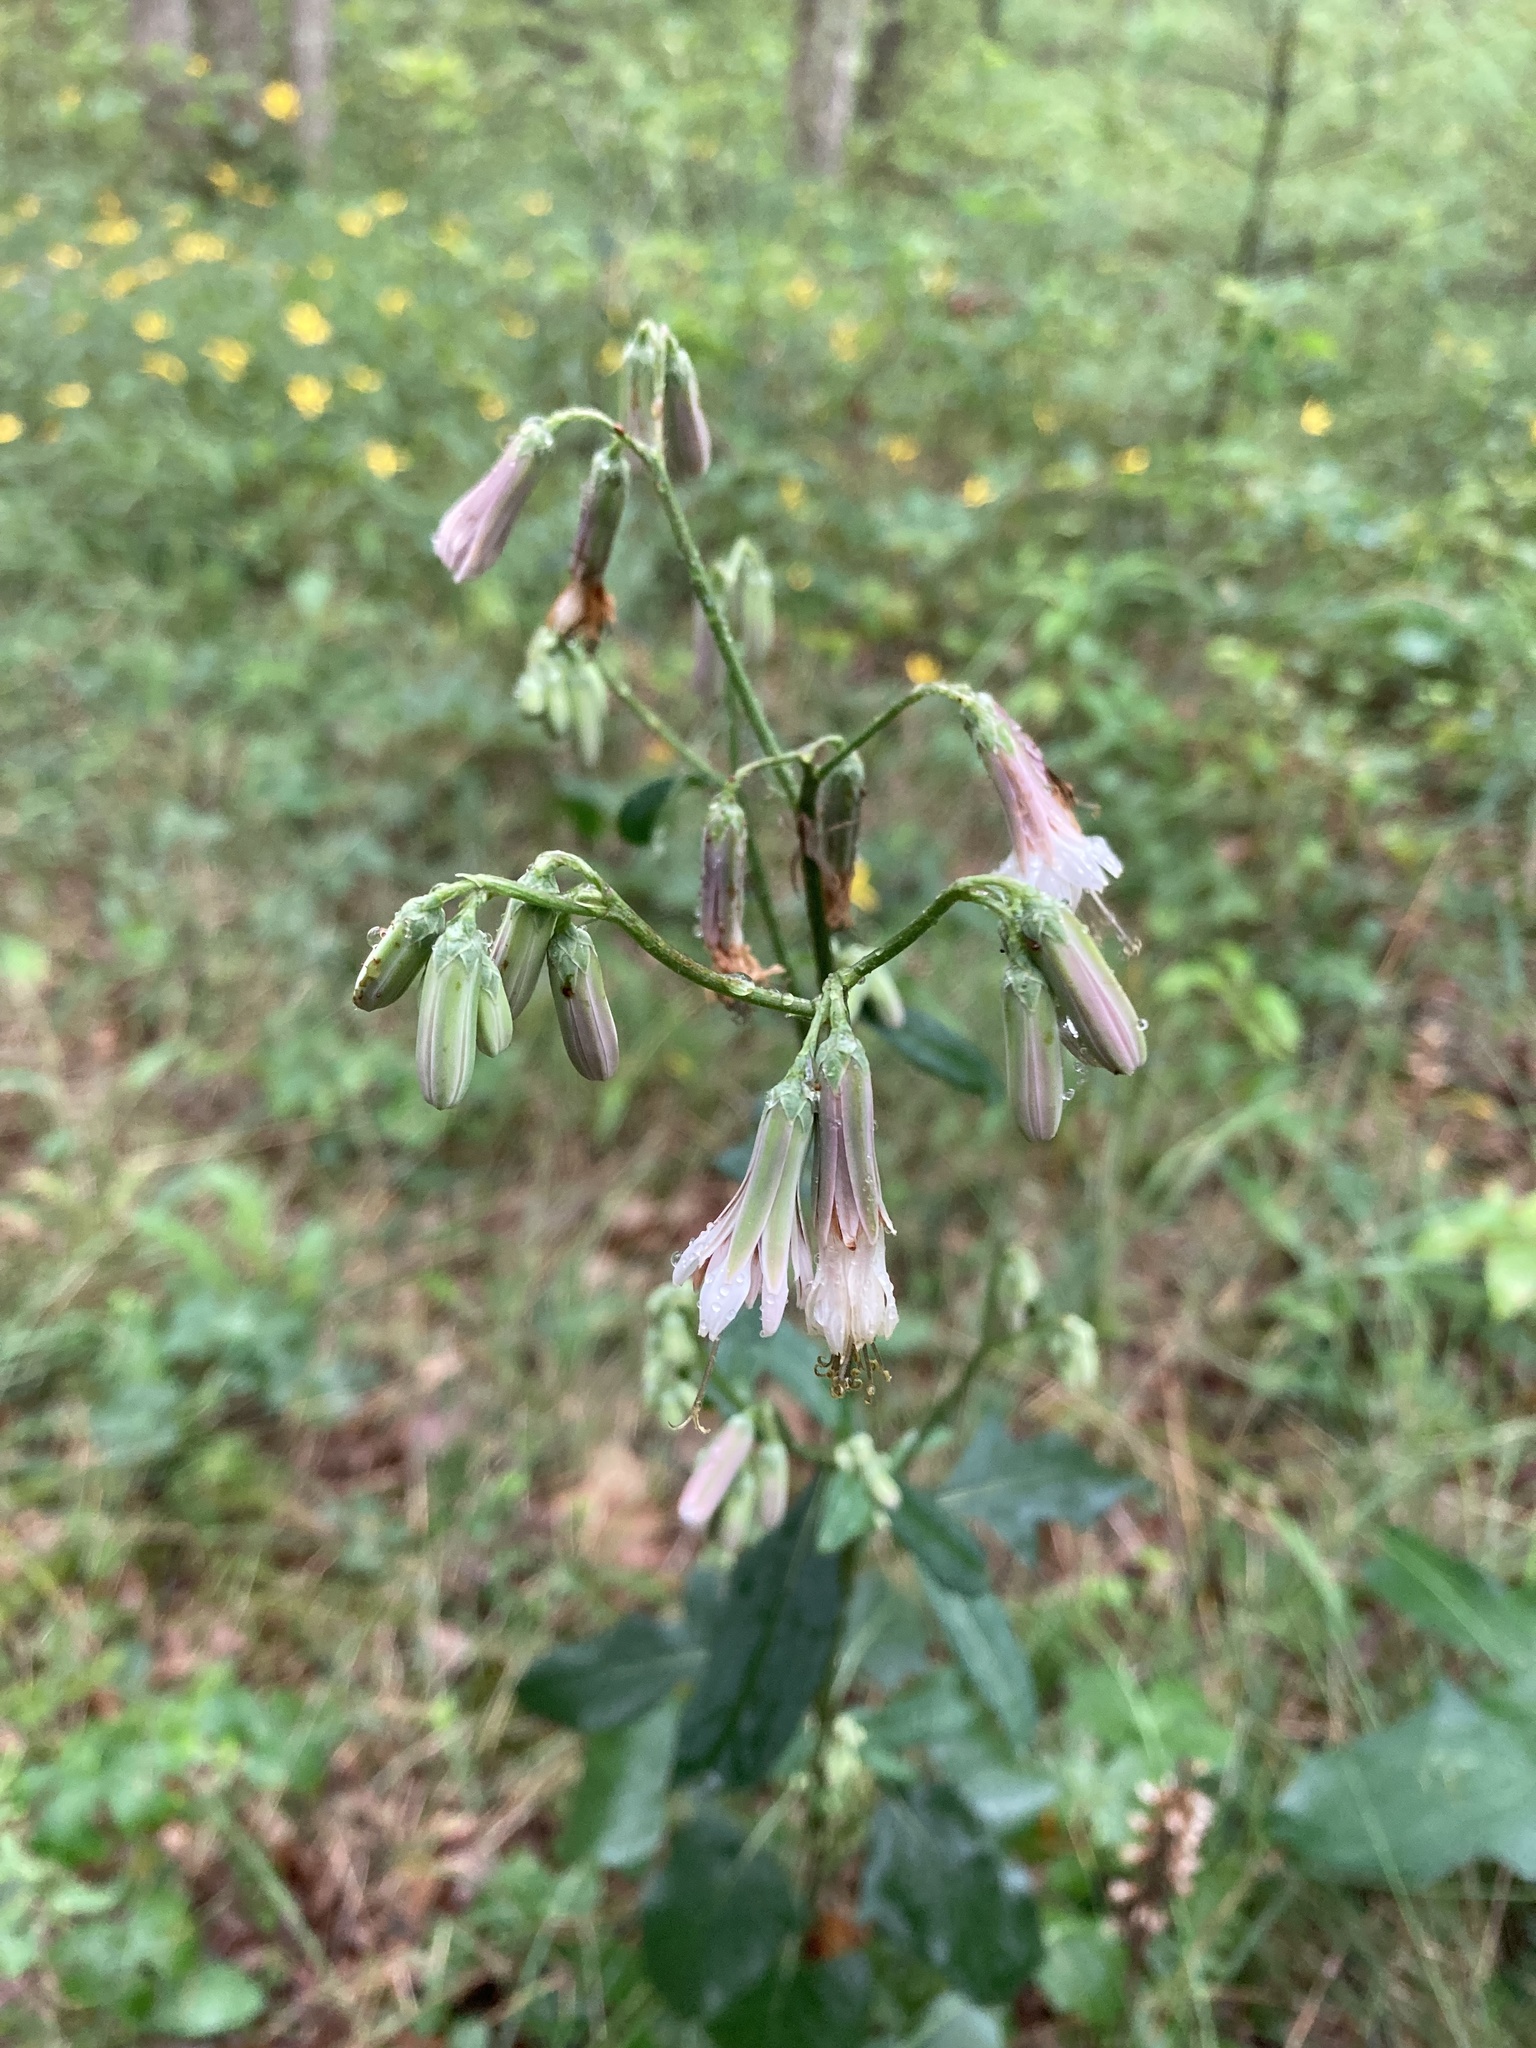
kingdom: Plantae
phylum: Tracheophyta
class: Magnoliopsida
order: Asterales
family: Asteraceae
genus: Nabalus
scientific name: Nabalus albus
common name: White rattlesnakeroot
